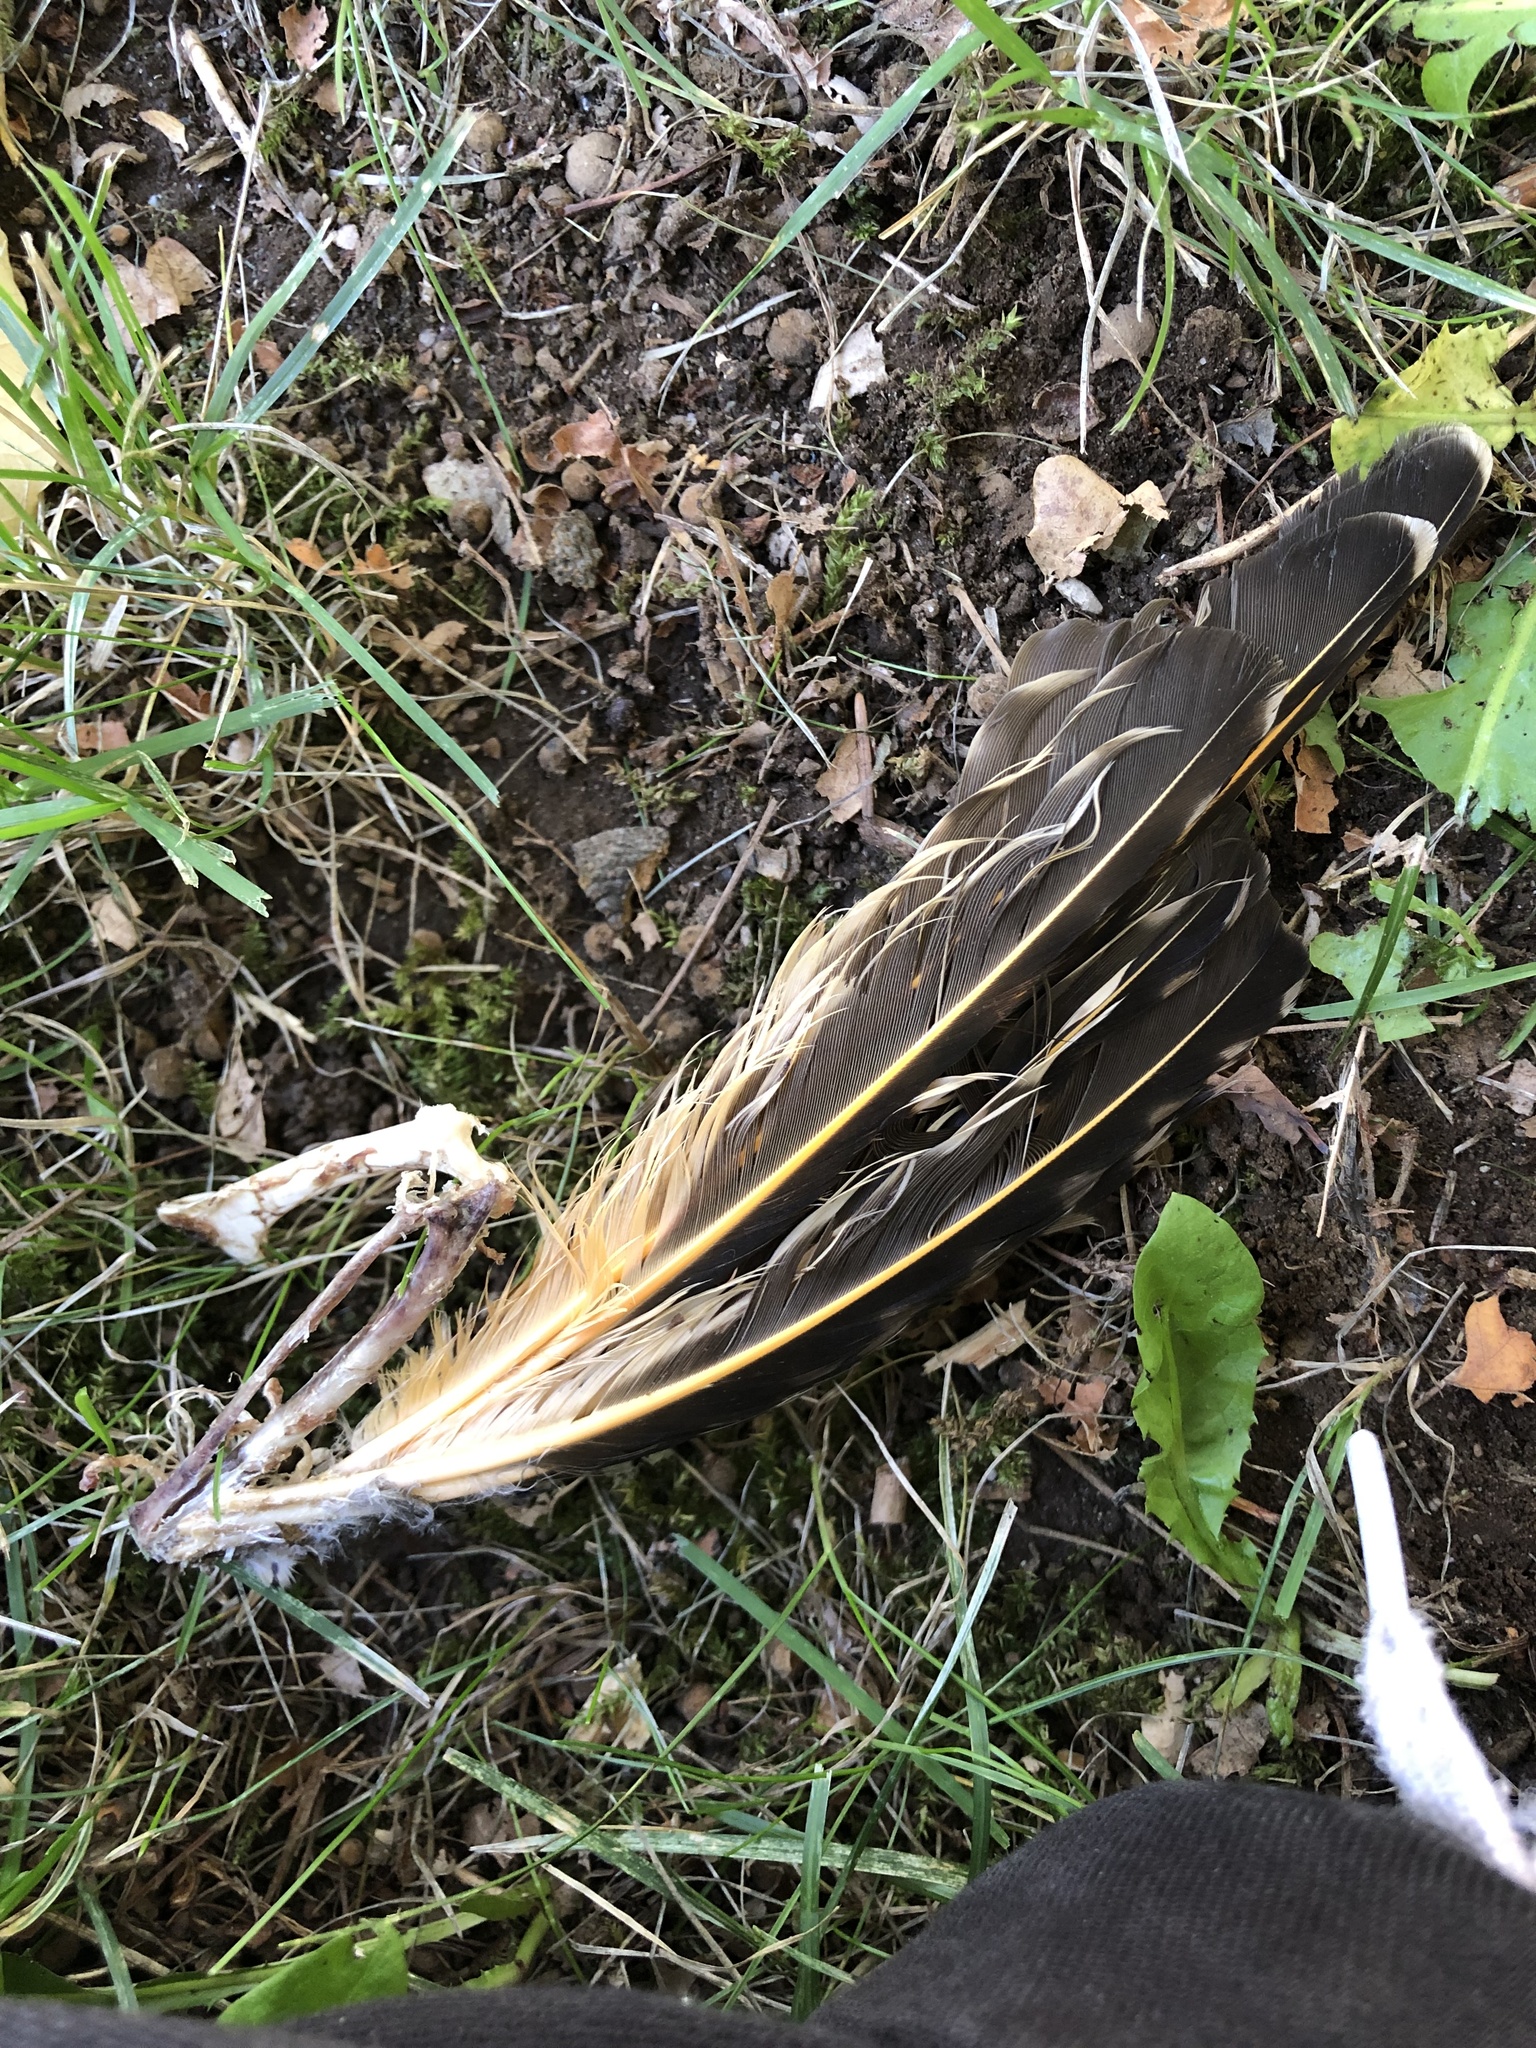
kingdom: Animalia
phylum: Chordata
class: Aves
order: Piciformes
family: Picidae
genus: Colaptes
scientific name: Colaptes auratus
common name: Northern flicker
